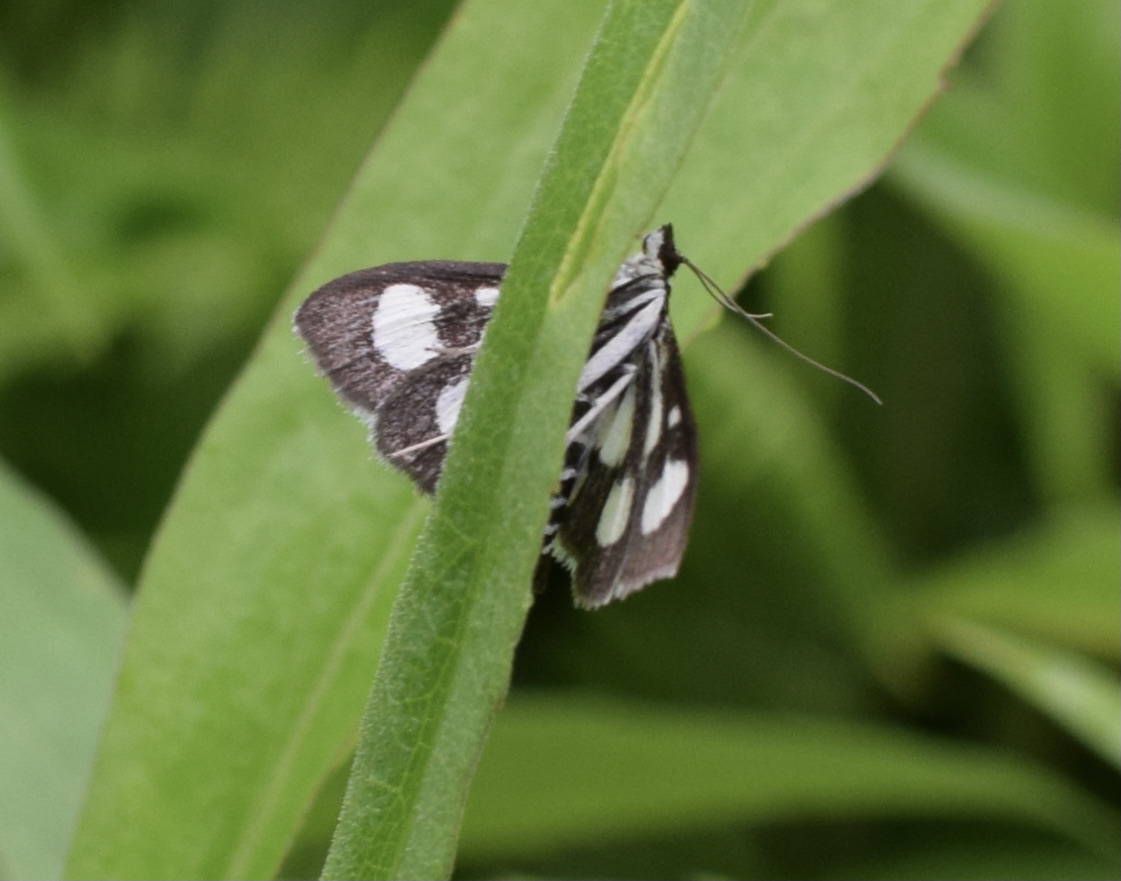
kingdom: Animalia
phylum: Arthropoda
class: Insecta
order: Lepidoptera
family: Crambidae
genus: Anania
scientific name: Anania funebris
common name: White-spotted sable moth
